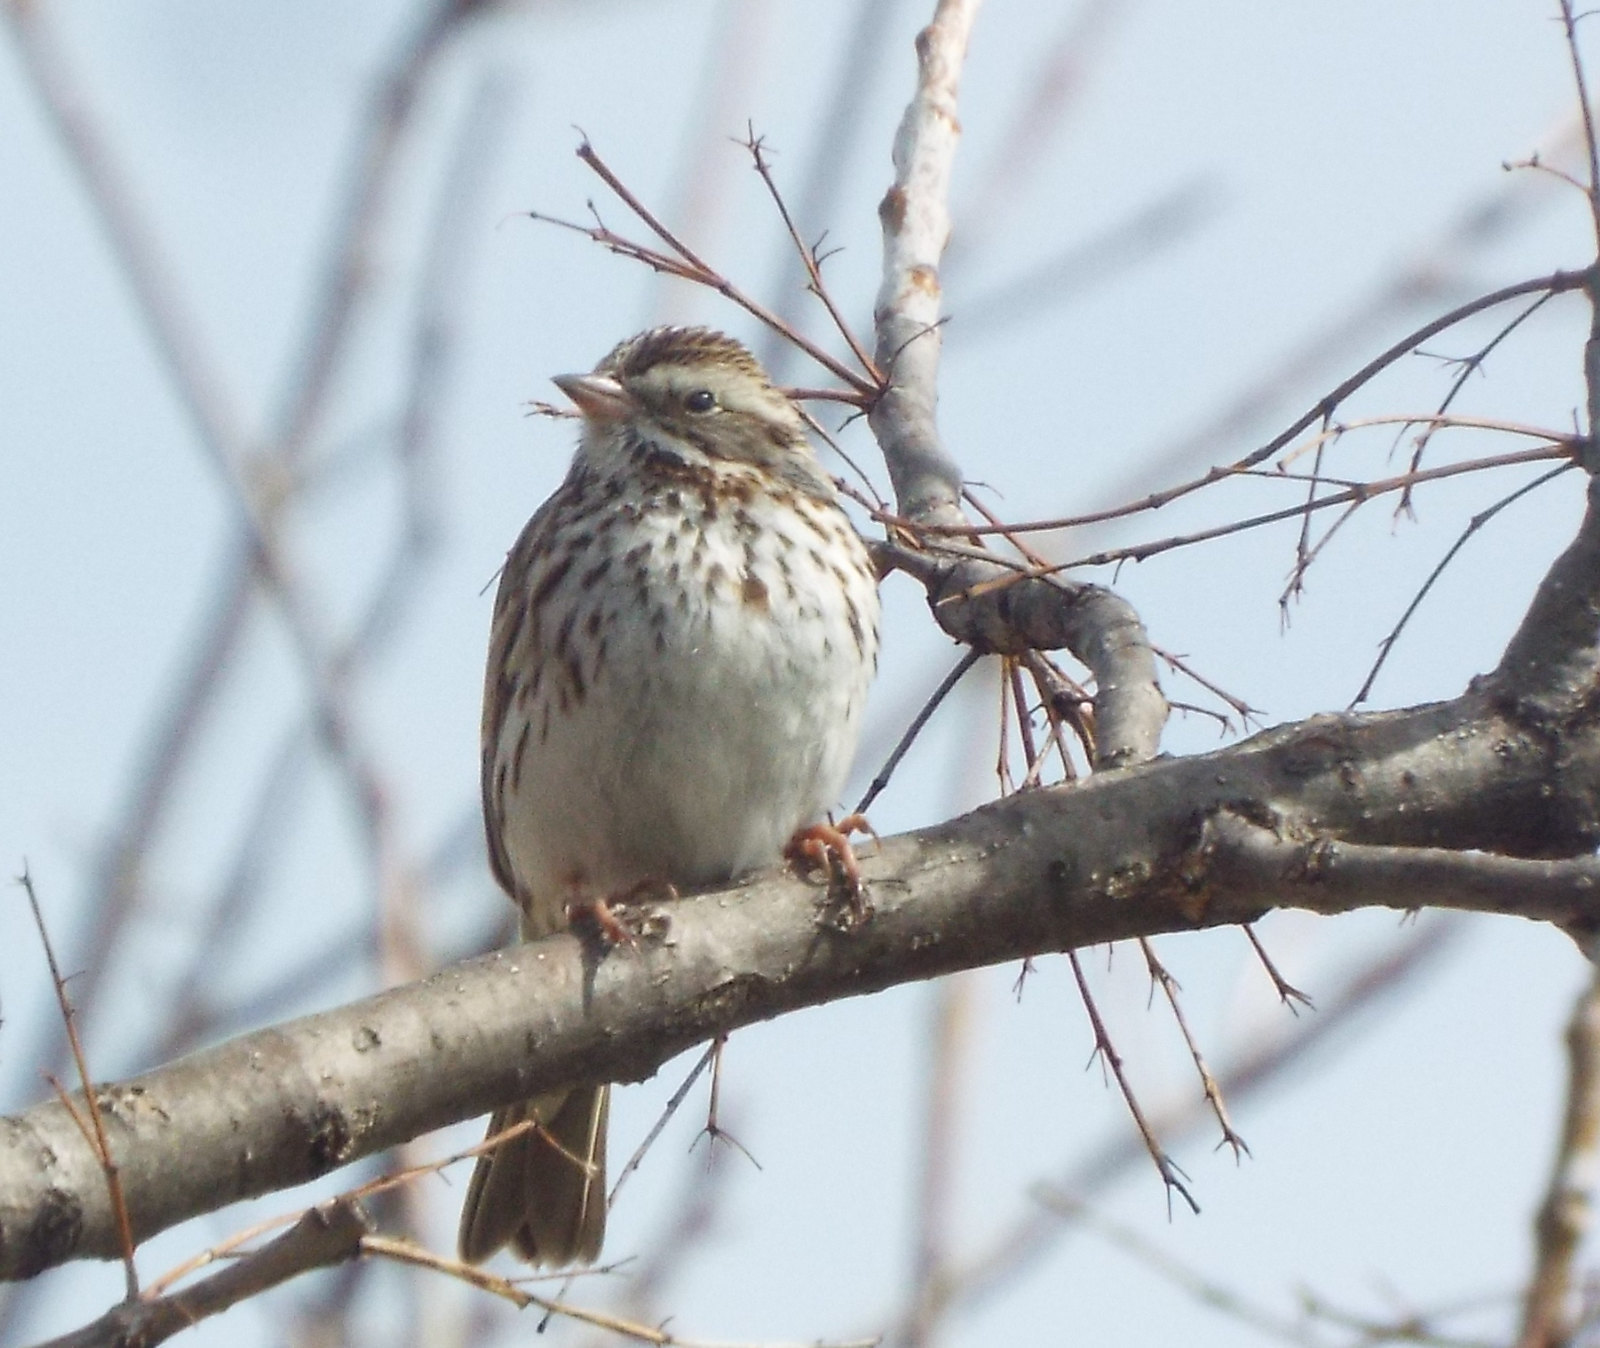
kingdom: Animalia
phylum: Chordata
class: Aves
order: Passeriformes
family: Passerellidae
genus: Passerculus
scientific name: Passerculus sandwichensis
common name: Savannah sparrow
